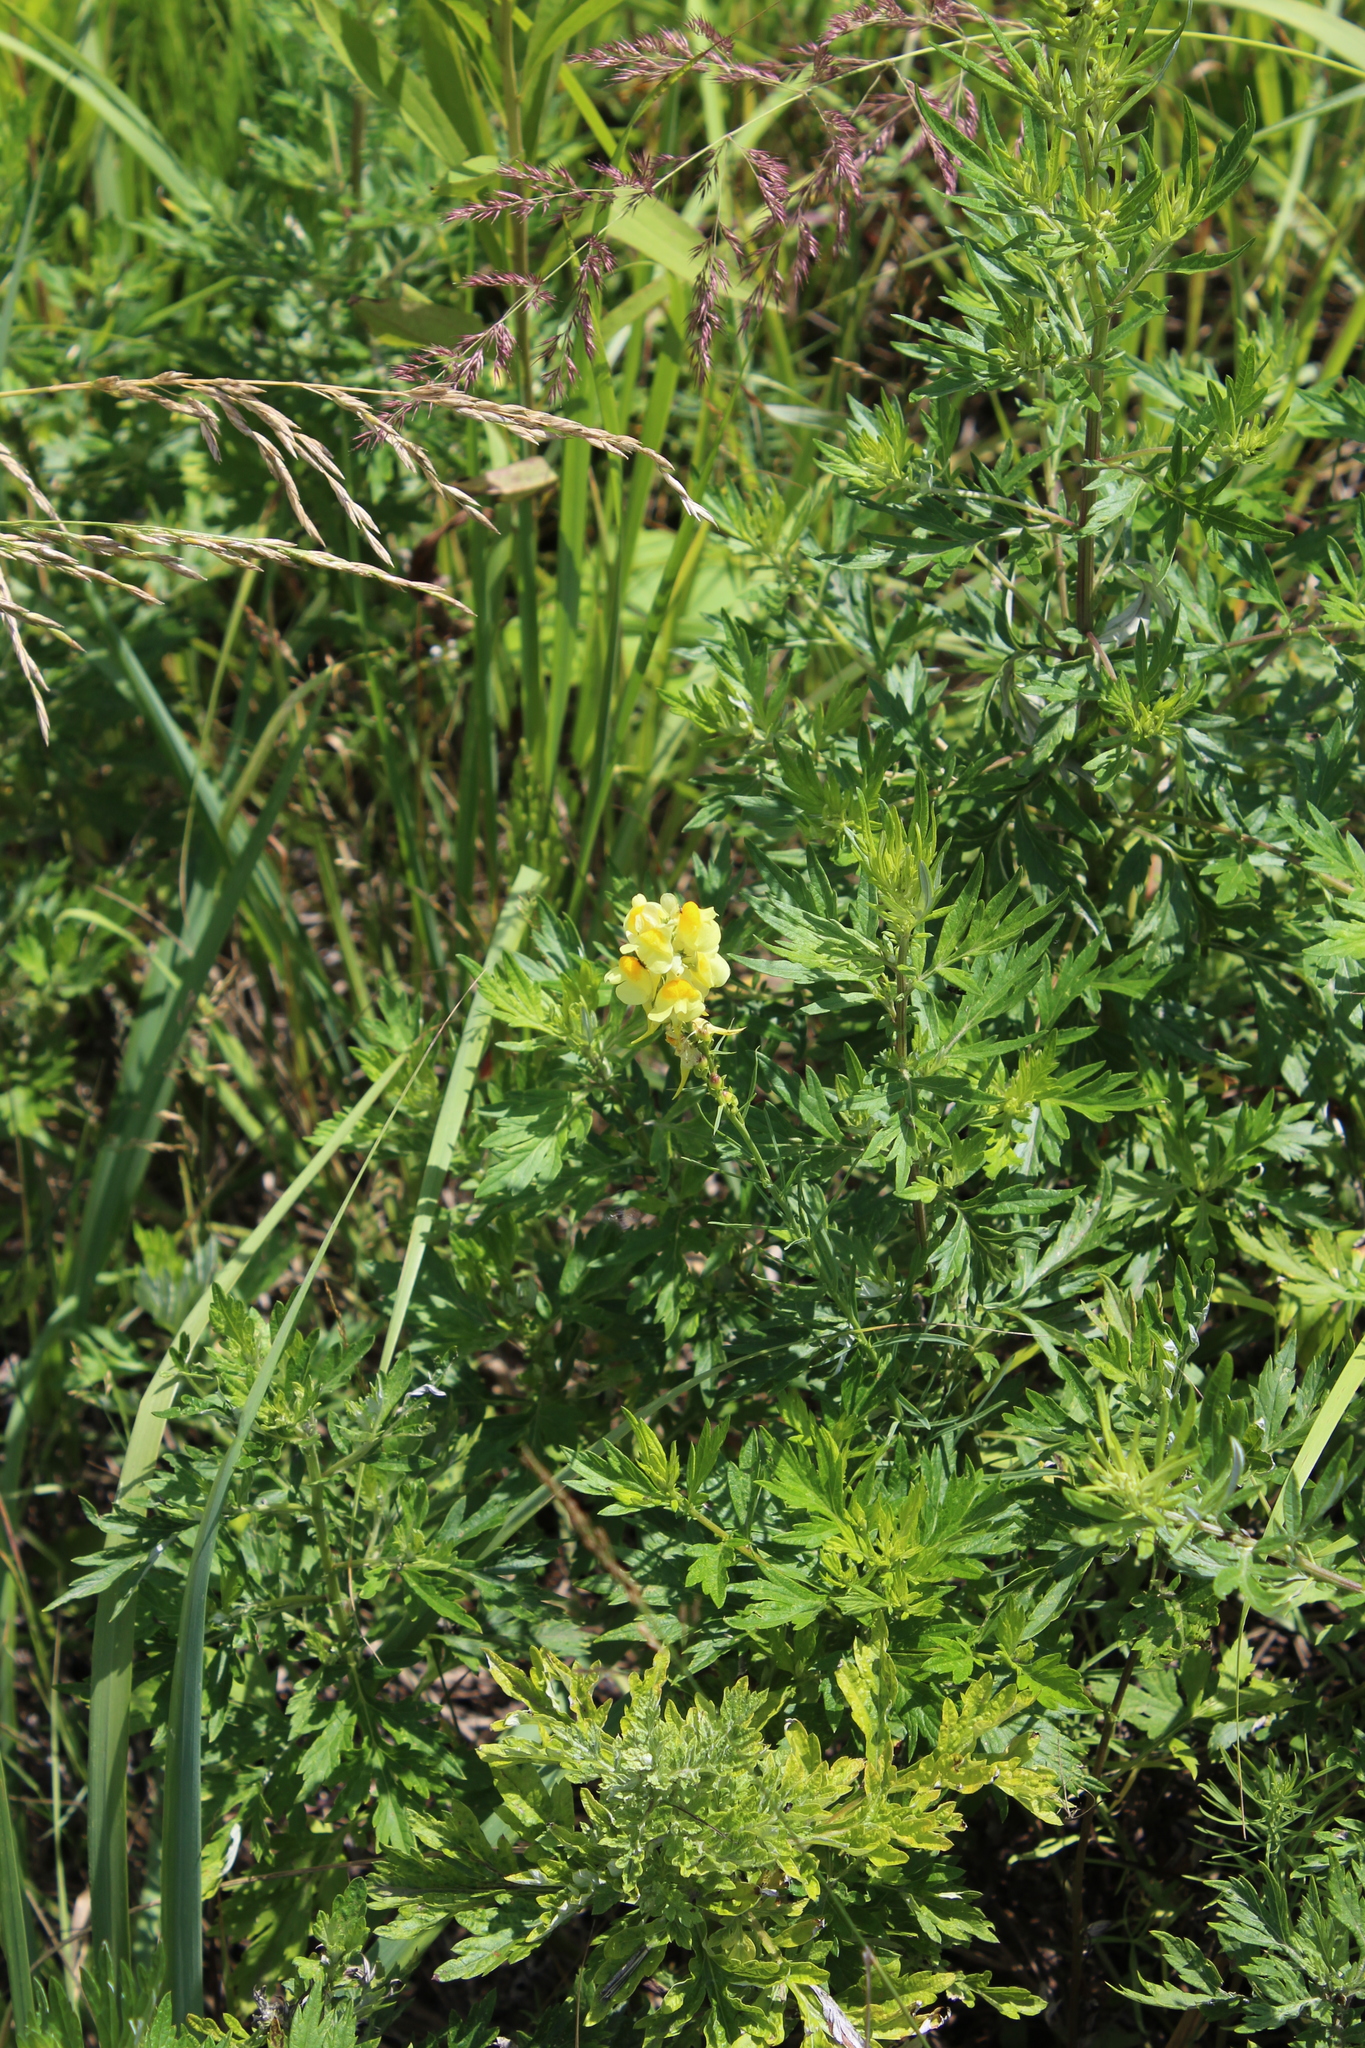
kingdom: Plantae
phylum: Tracheophyta
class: Magnoliopsida
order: Lamiales
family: Plantaginaceae
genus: Linaria
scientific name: Linaria vulgaris
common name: Butter and eggs
